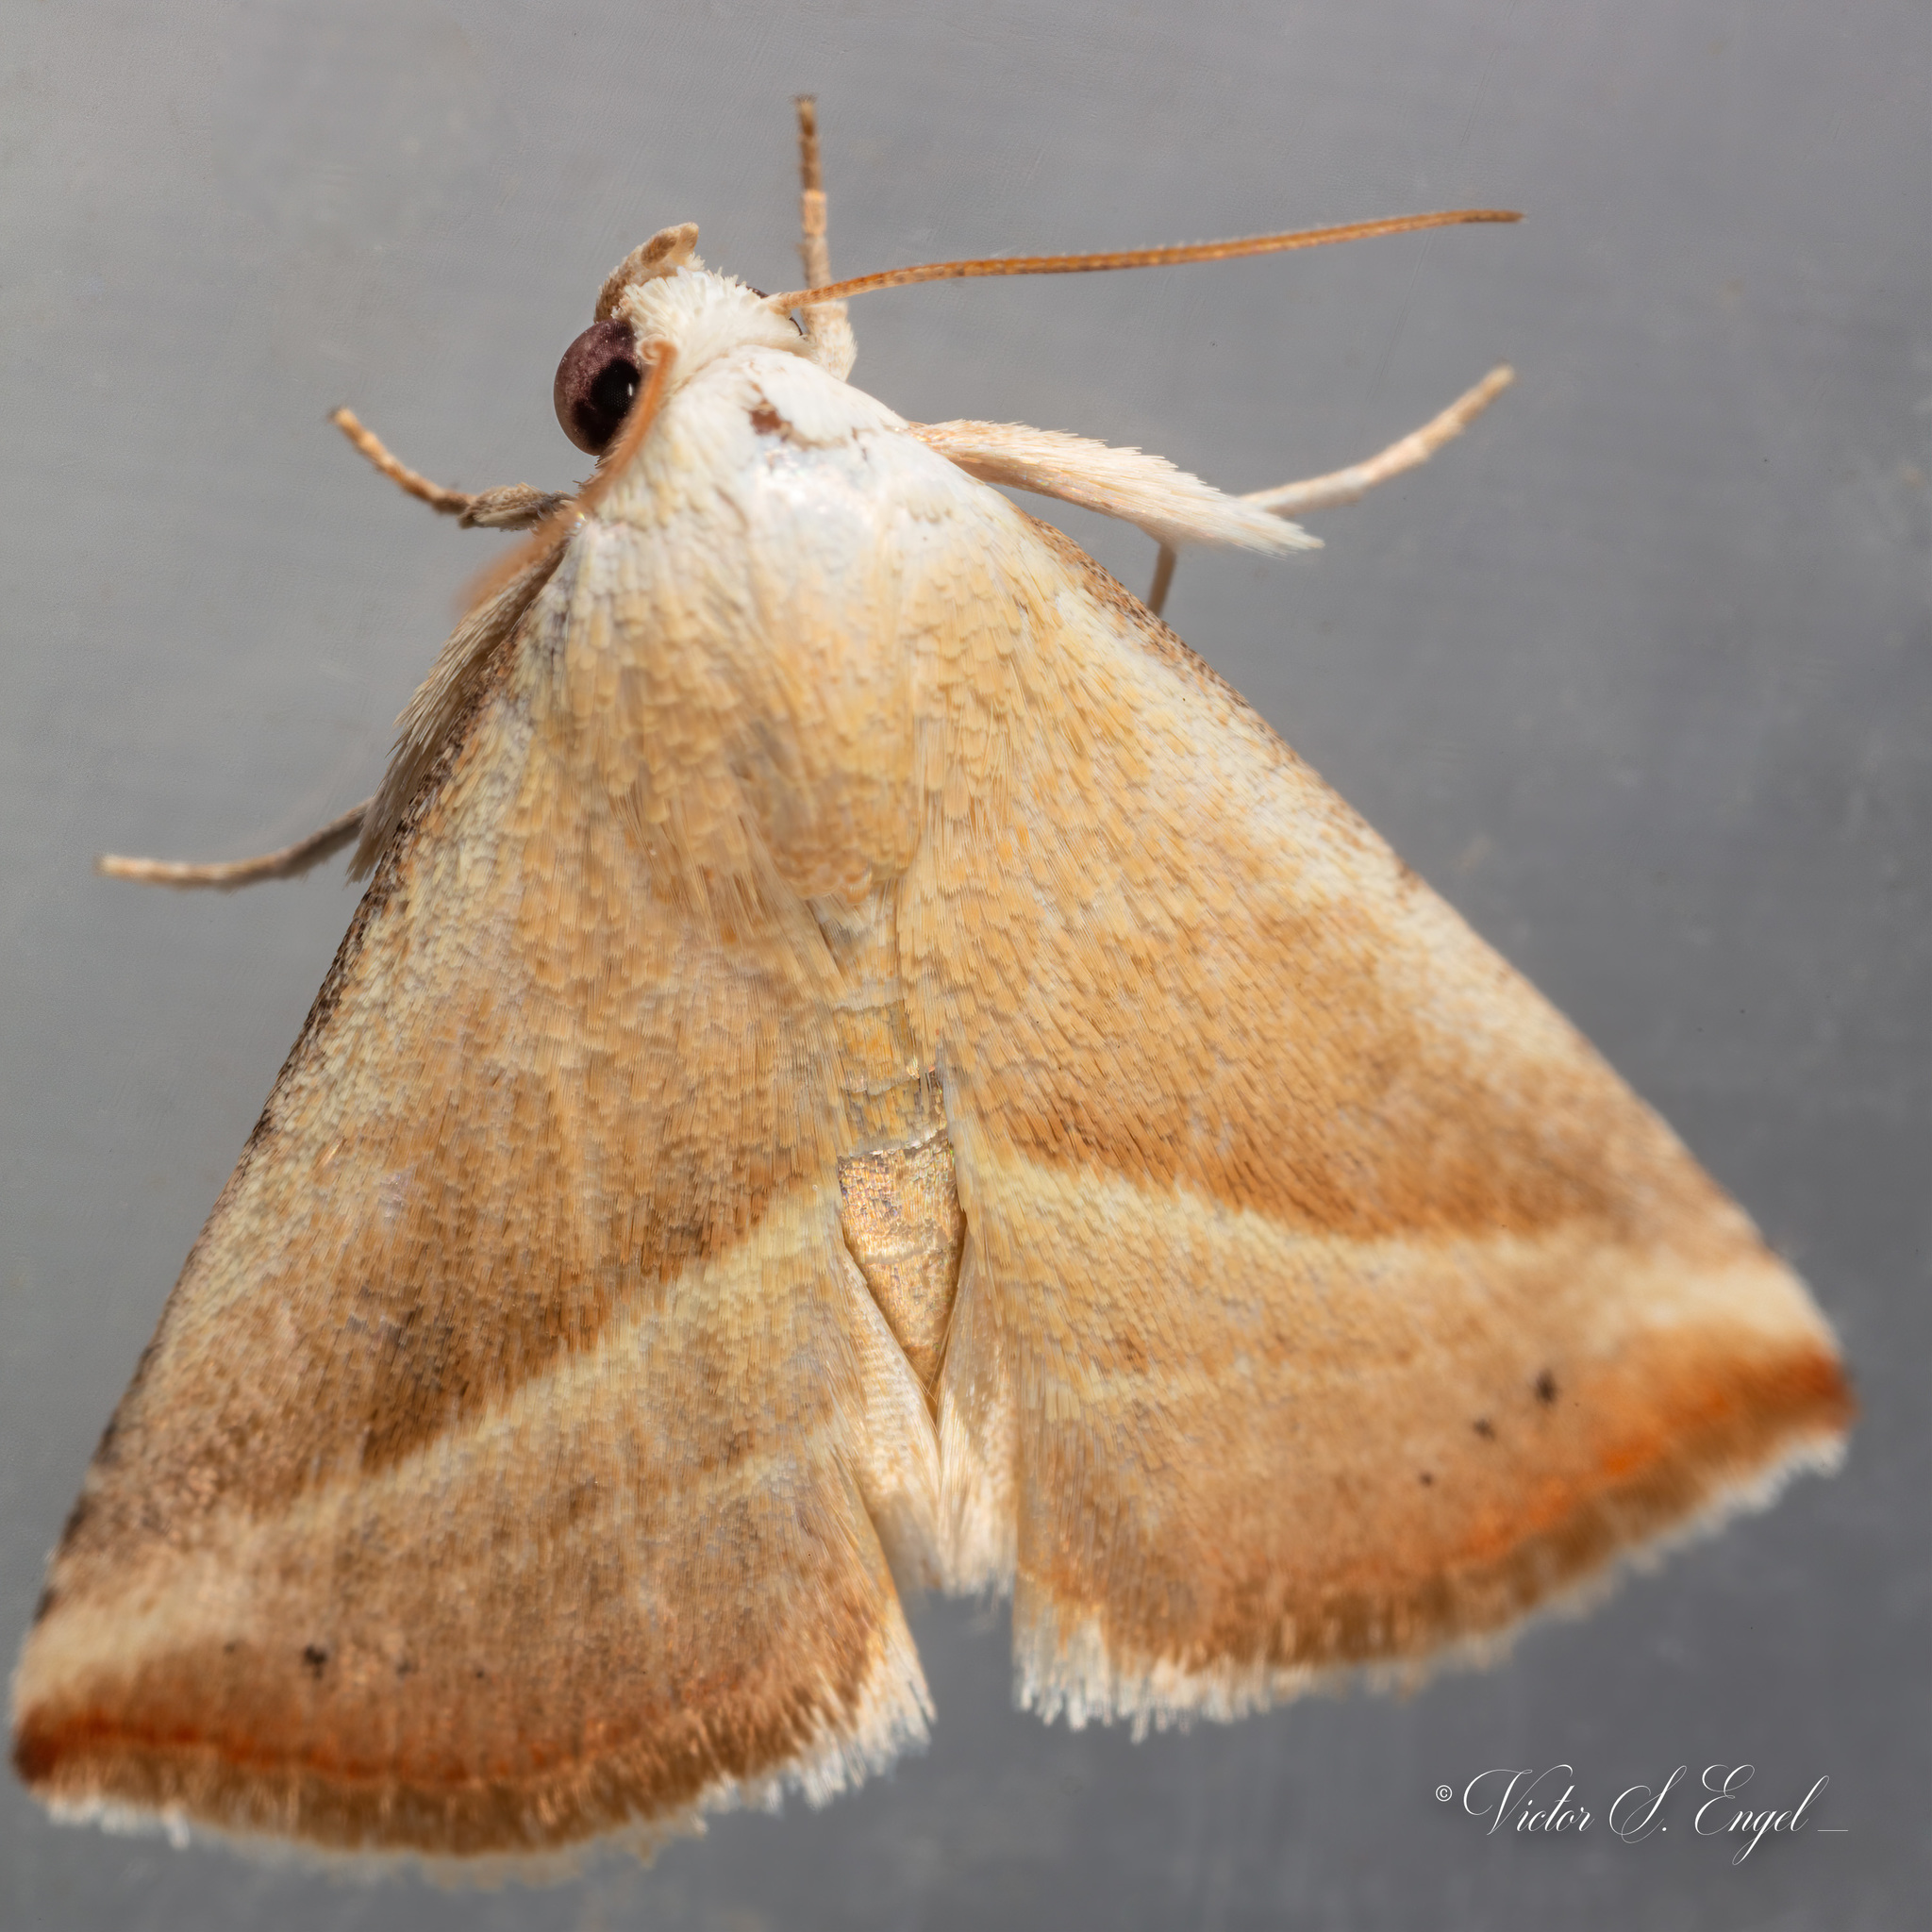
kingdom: Animalia
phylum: Arthropoda
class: Insecta
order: Lepidoptera
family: Noctuidae
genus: Eublemma
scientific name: Eublemma recta
